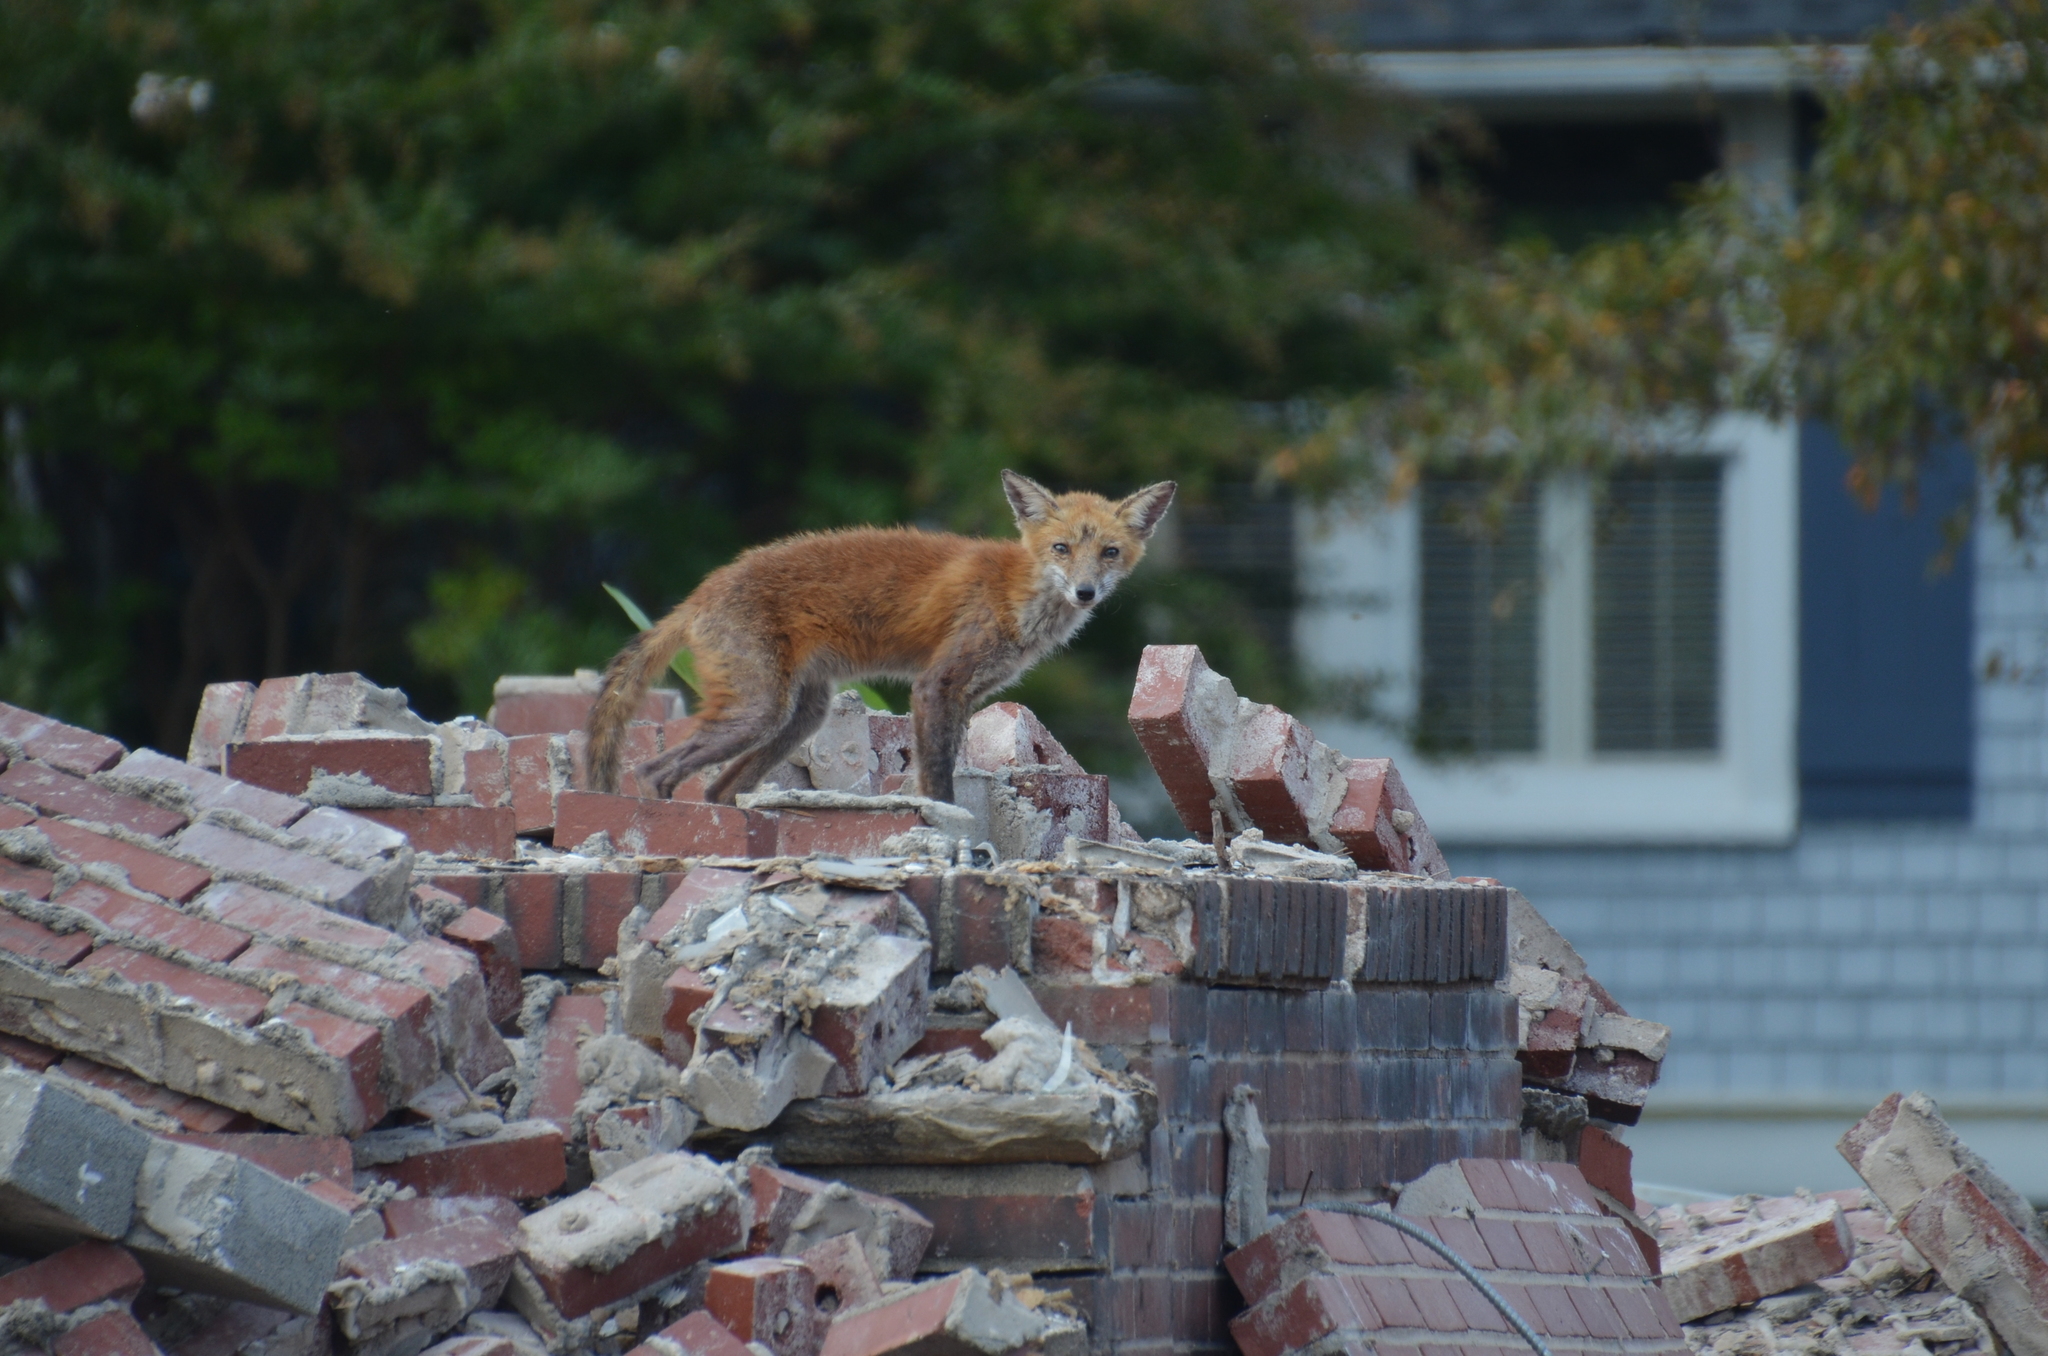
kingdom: Animalia
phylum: Chordata
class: Mammalia
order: Carnivora
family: Canidae
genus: Vulpes
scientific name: Vulpes vulpes
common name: Red fox
